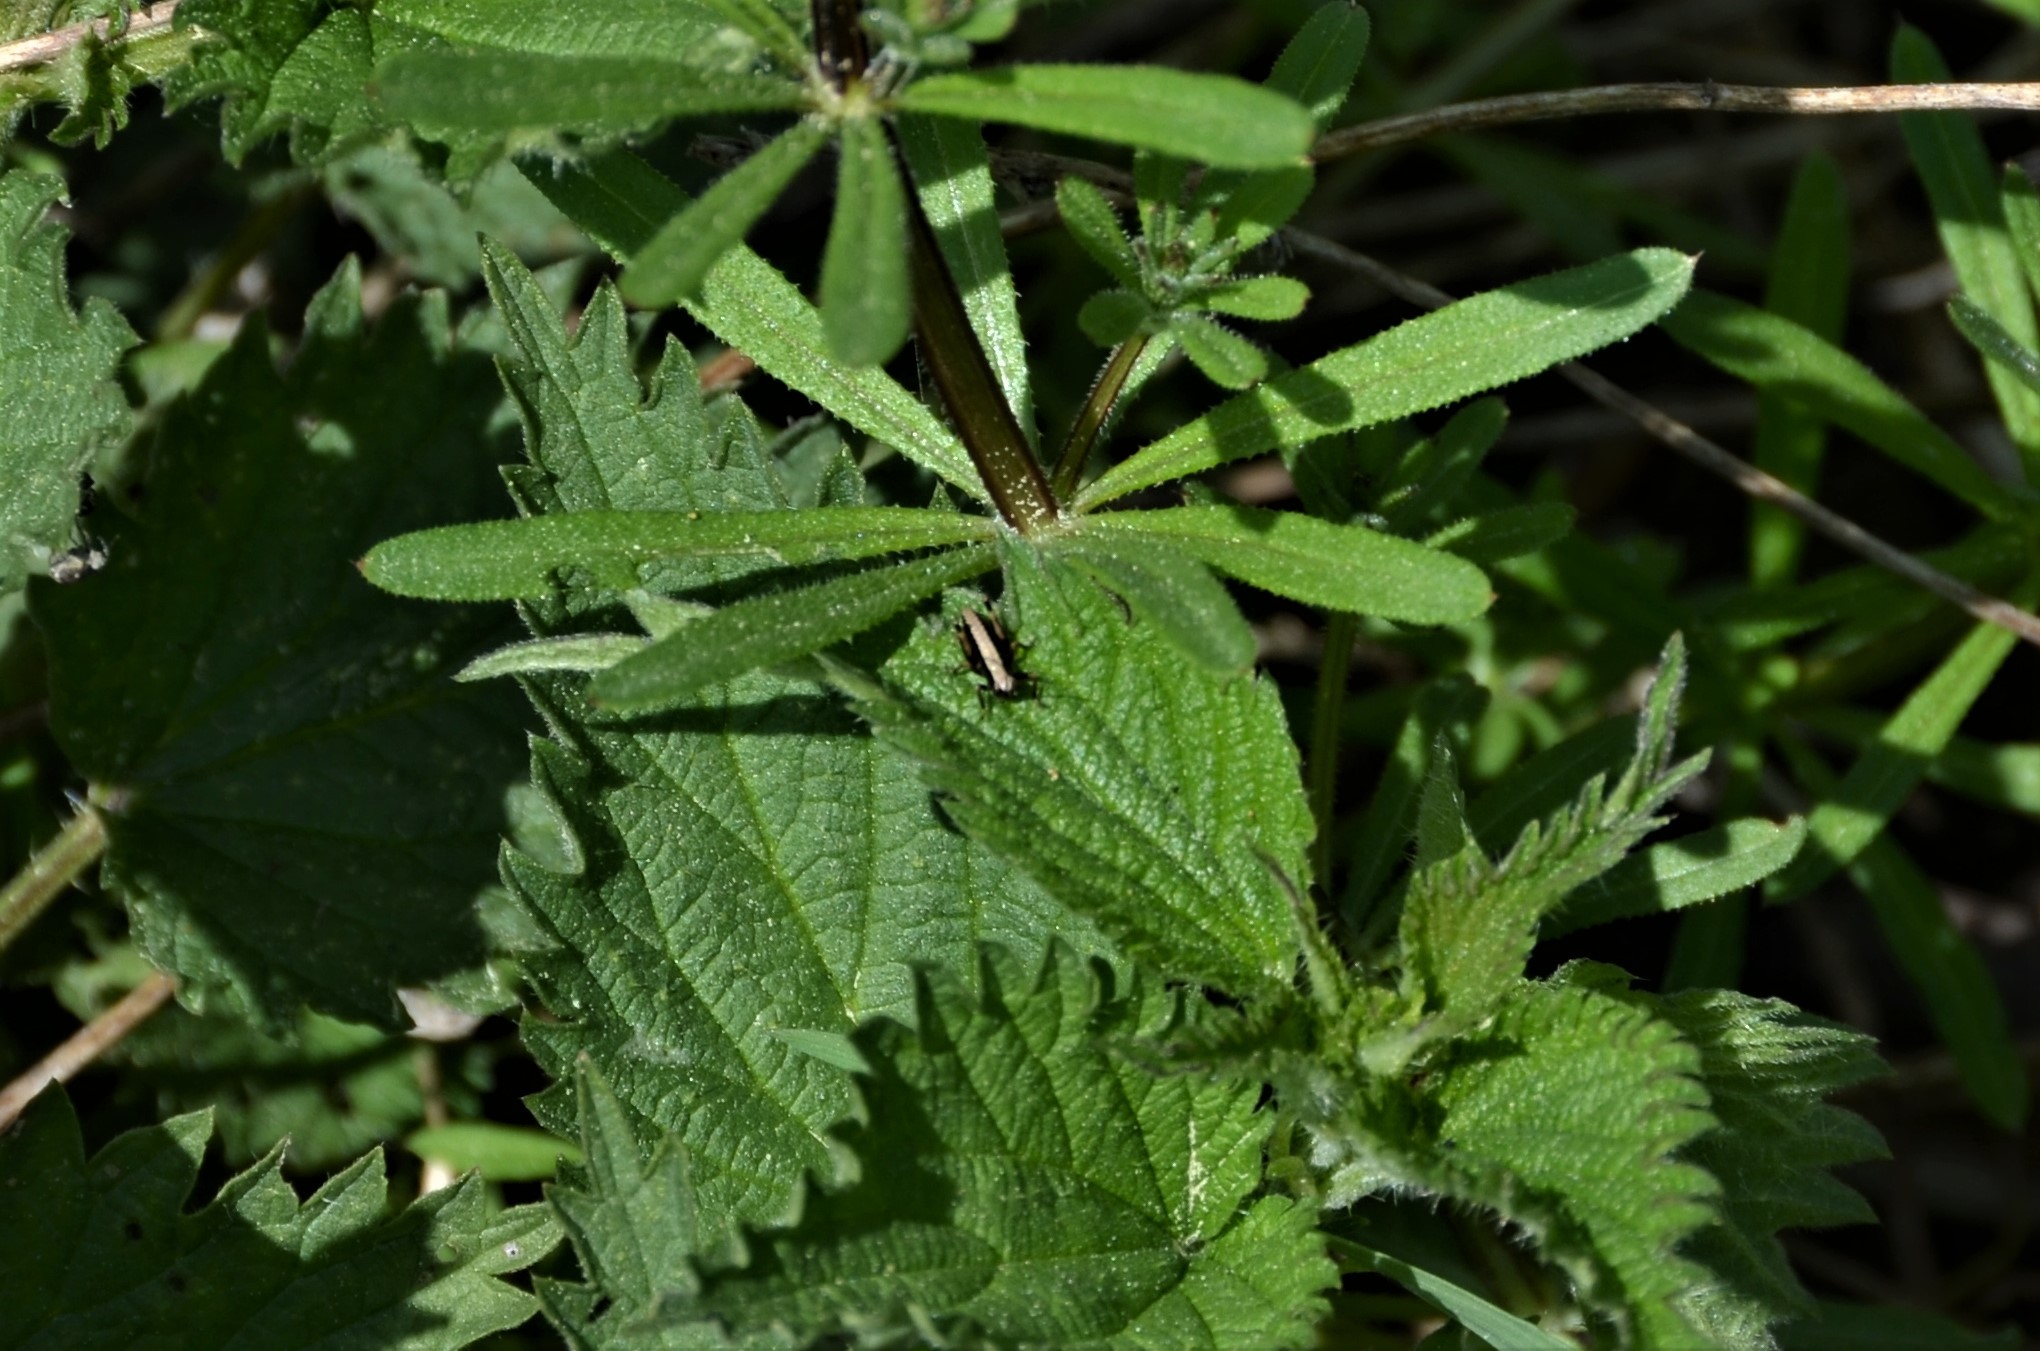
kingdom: Animalia
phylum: Arthropoda
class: Insecta
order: Orthoptera
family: Tettigoniidae
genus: Pholidoptera
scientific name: Pholidoptera griseoaptera
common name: Dark bush-cricket
